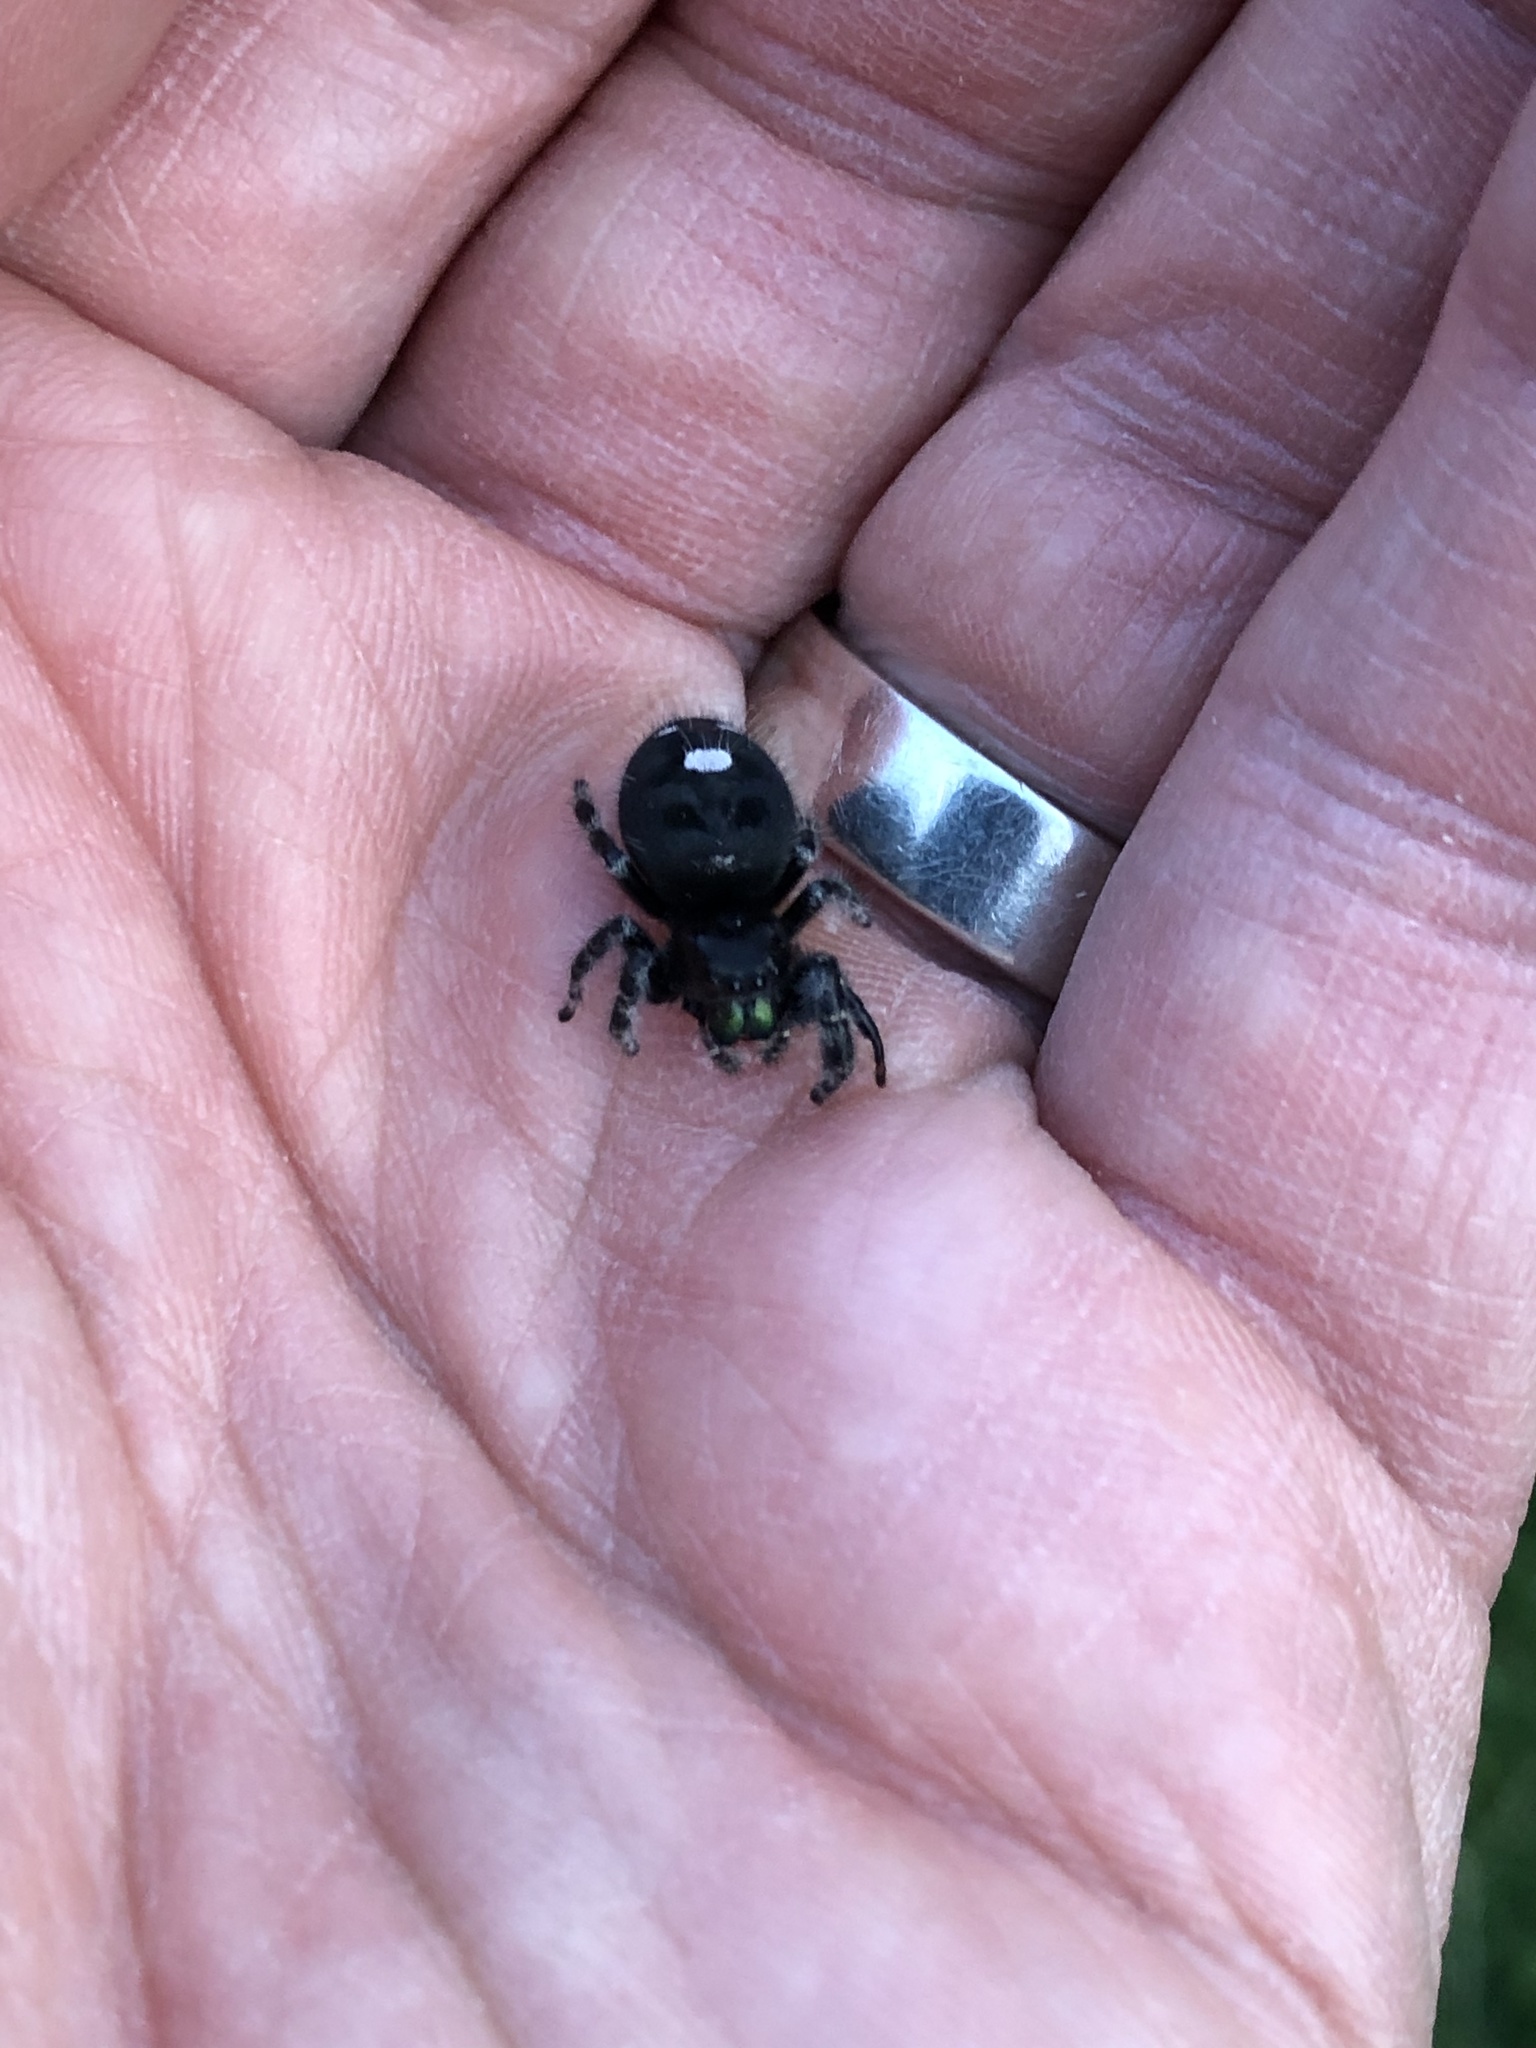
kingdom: Animalia
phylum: Arthropoda
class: Arachnida
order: Araneae
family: Salticidae
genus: Phidippus
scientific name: Phidippus audax
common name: Bold jumper
